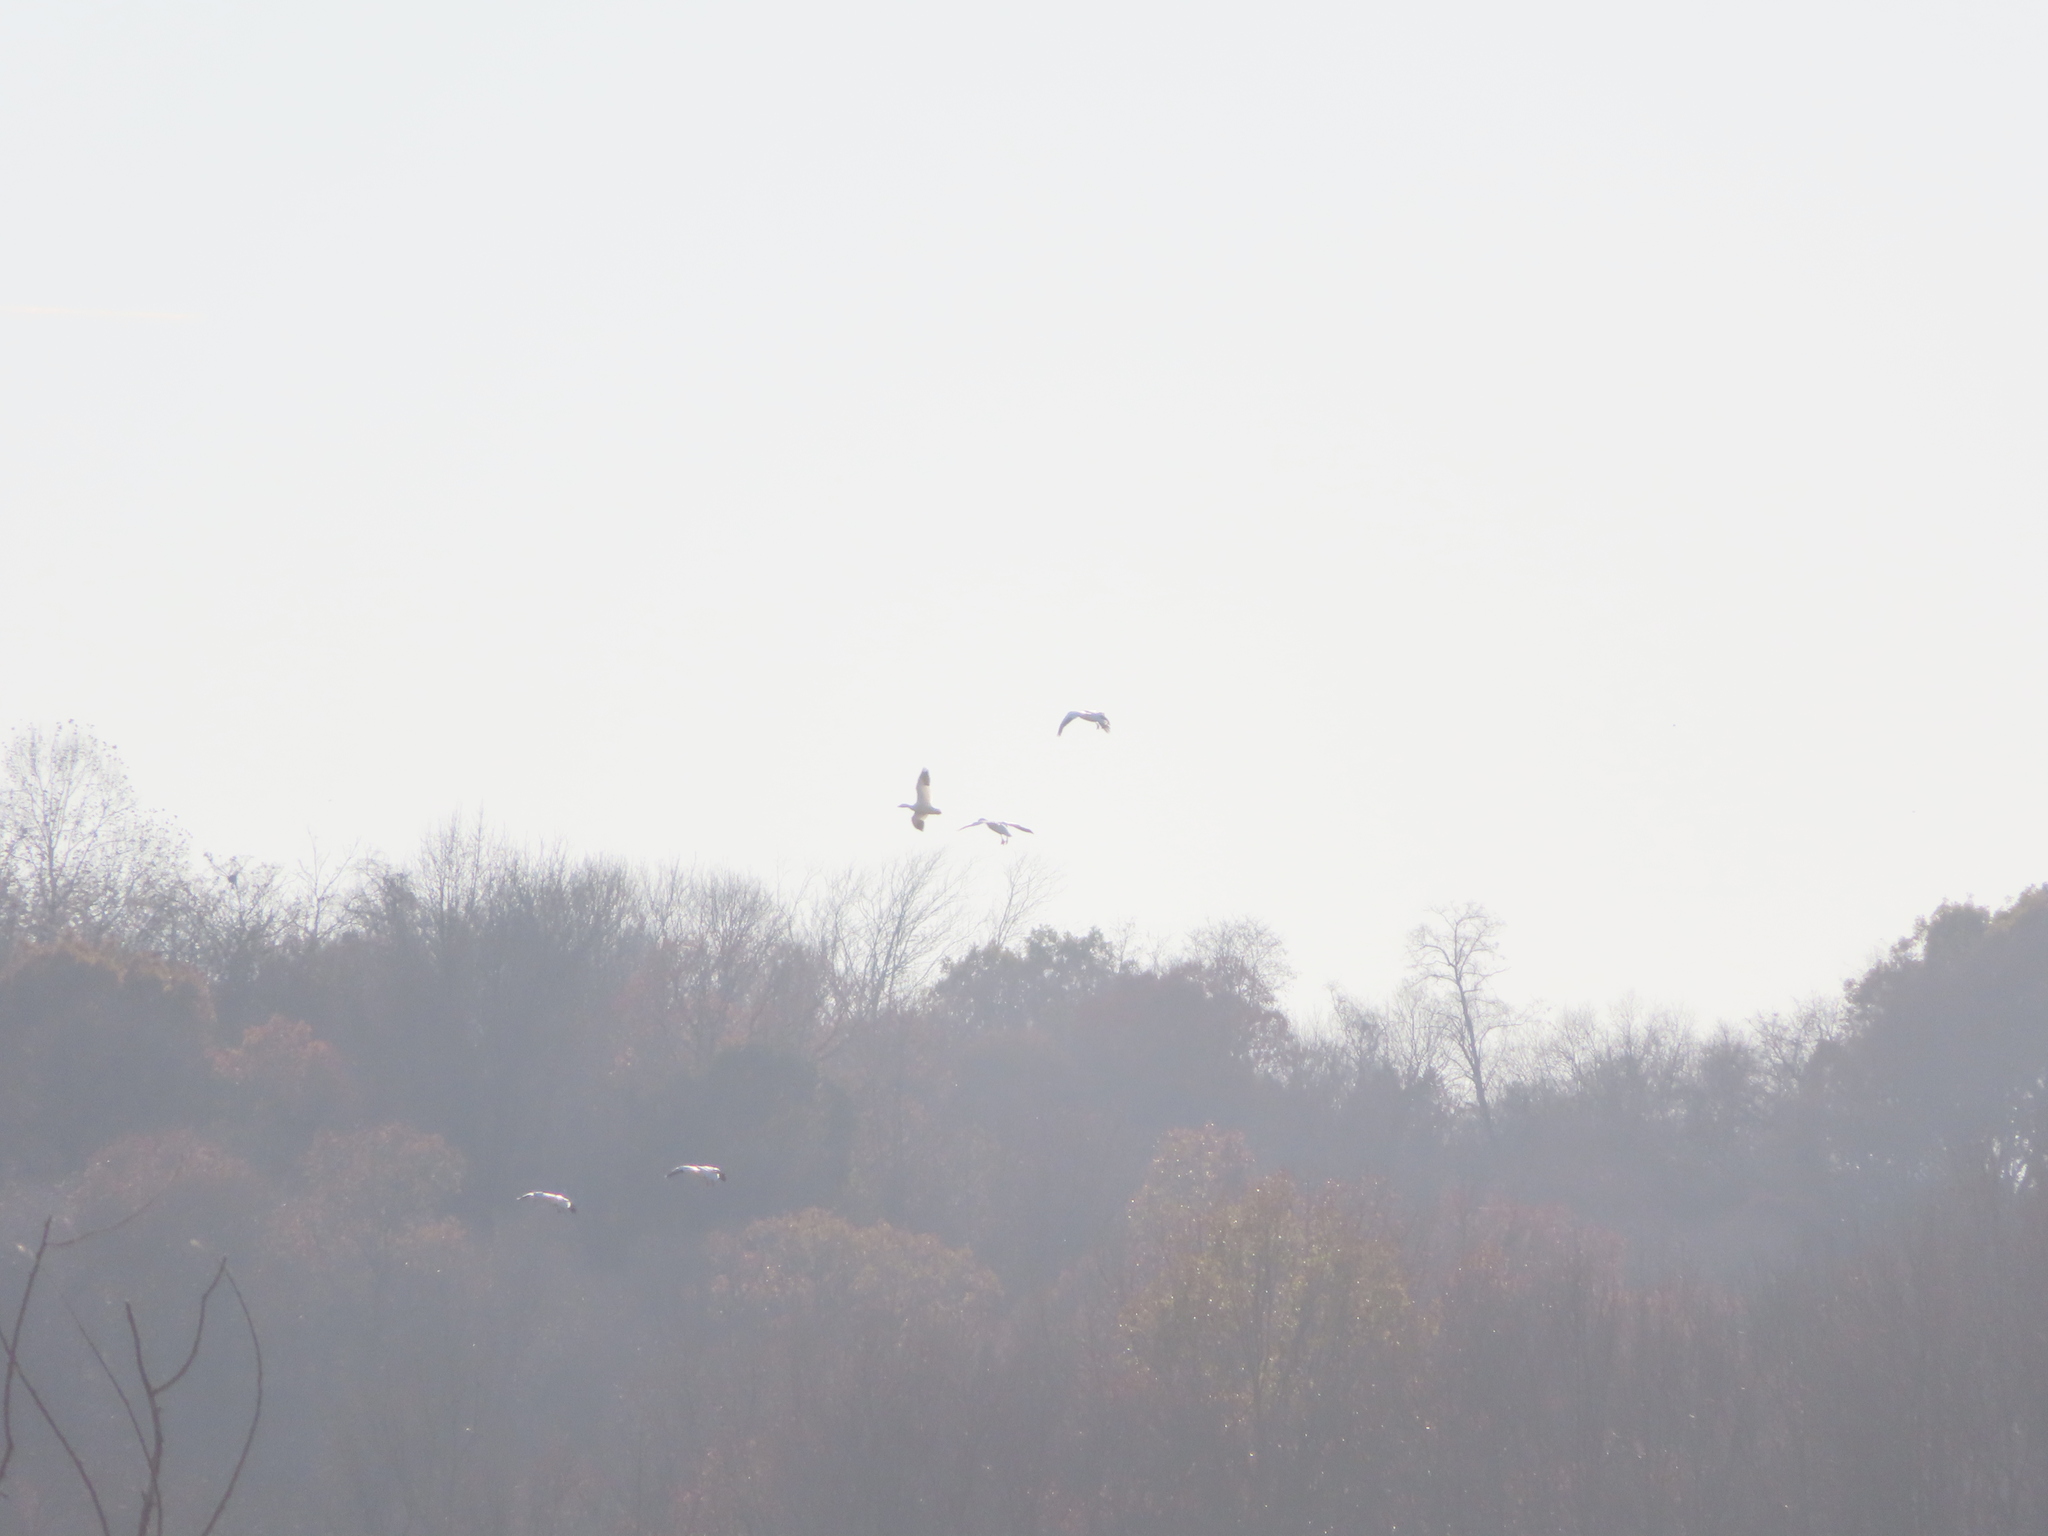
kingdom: Animalia
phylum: Chordata
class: Aves
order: Anseriformes
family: Anatidae
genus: Anser
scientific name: Anser caerulescens
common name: Snow goose
